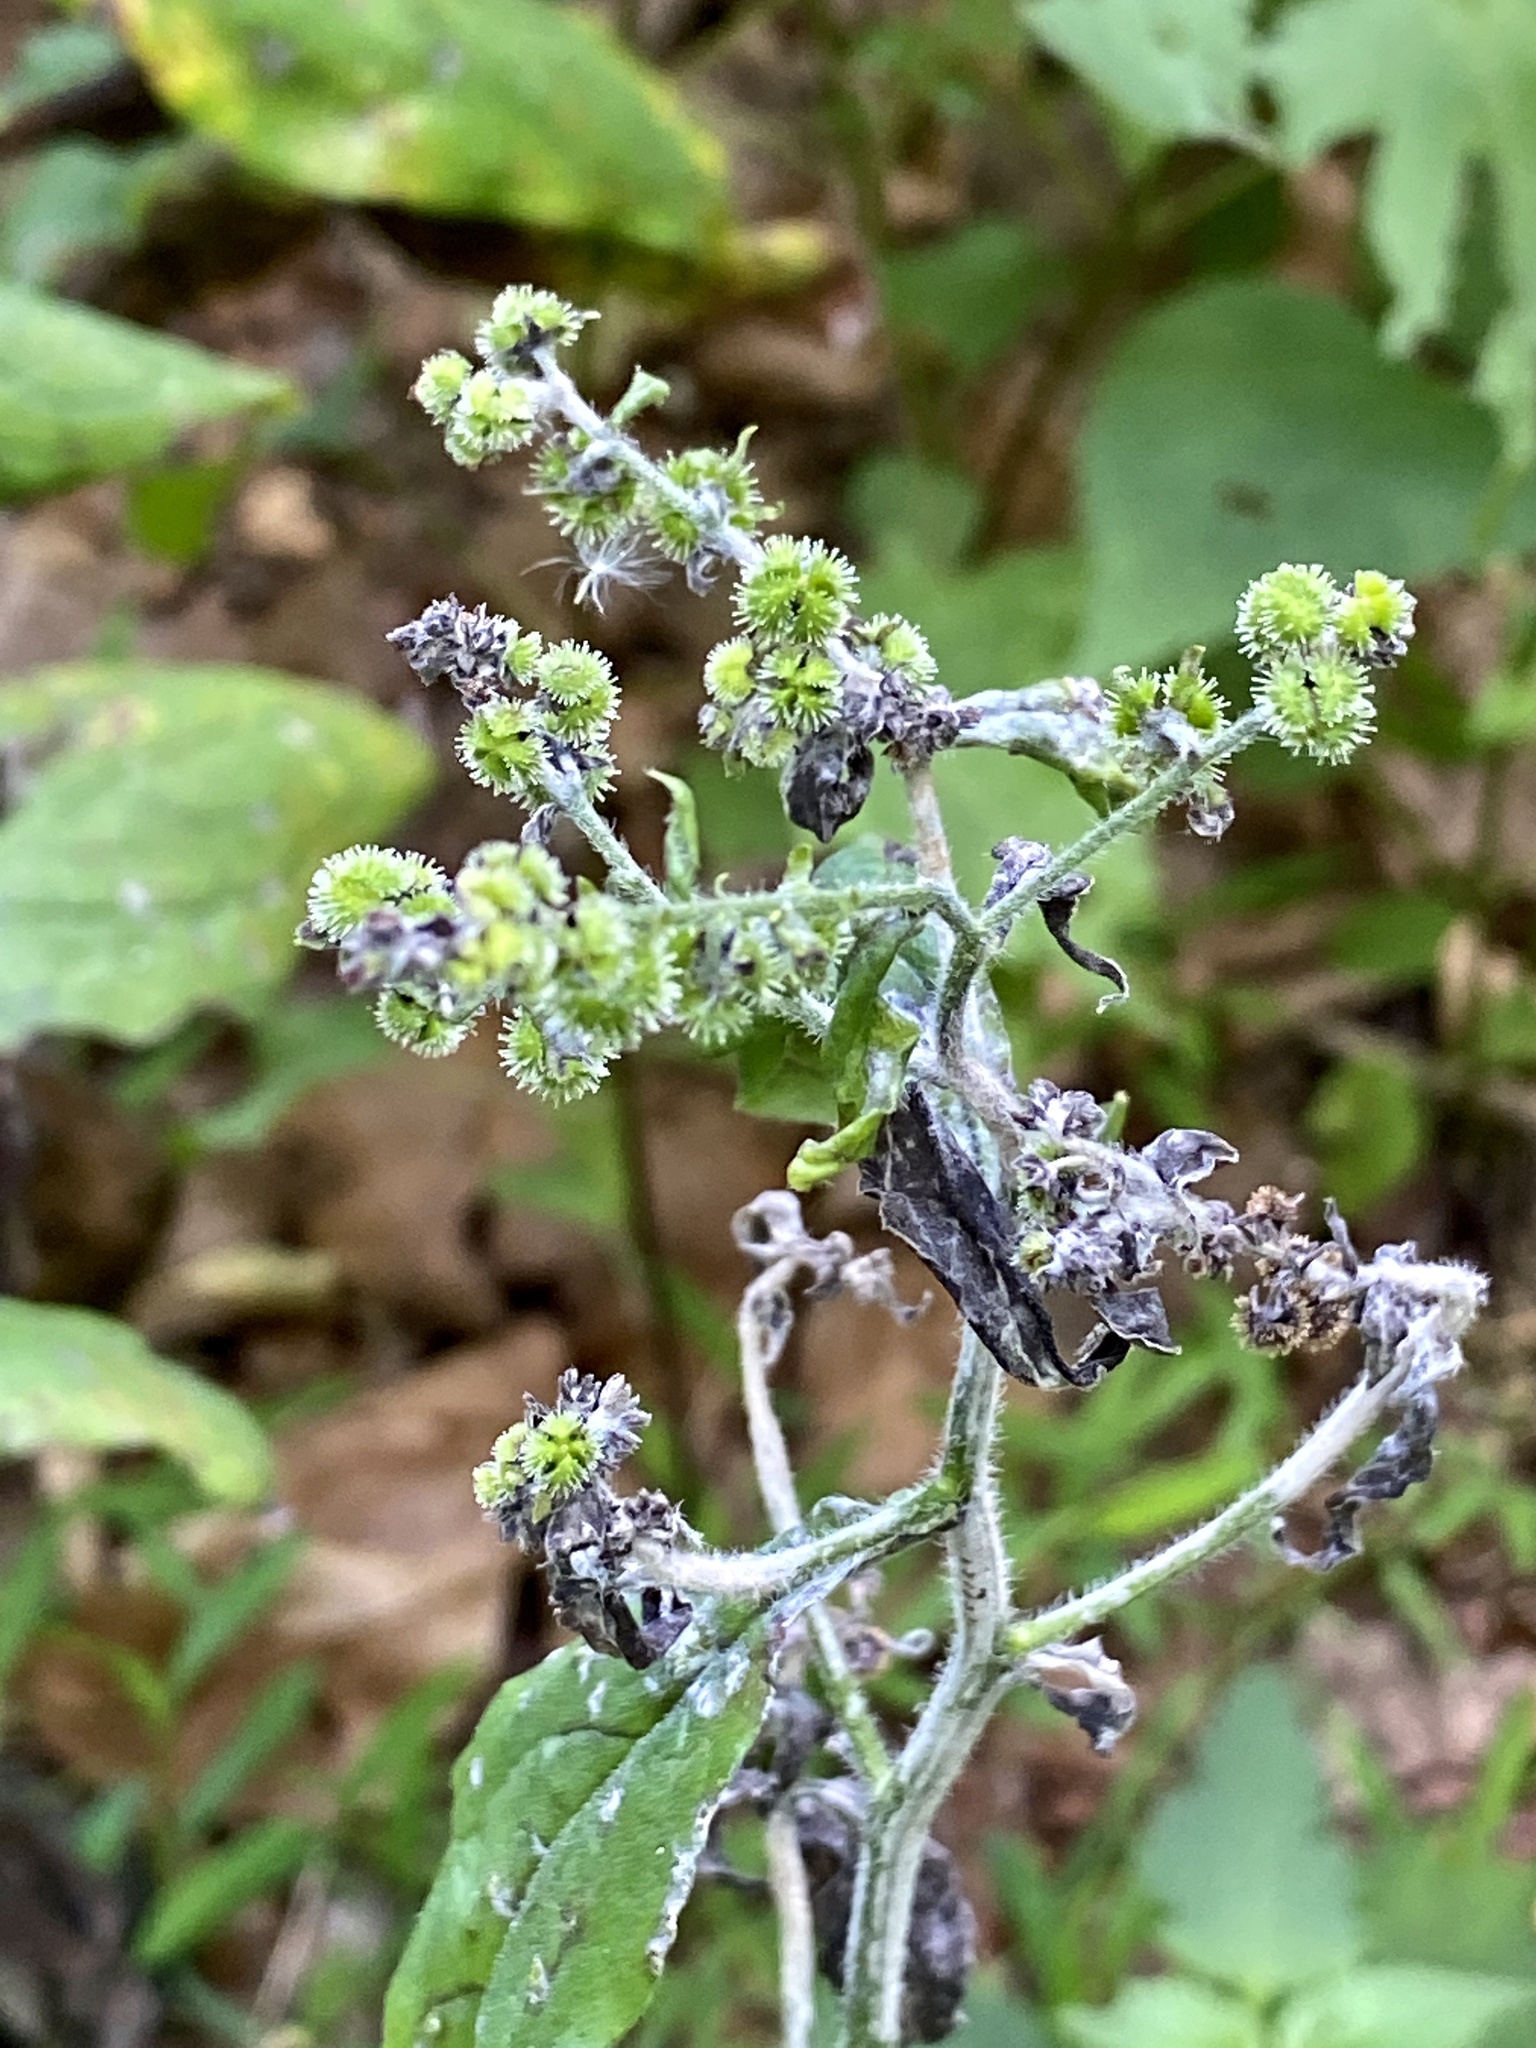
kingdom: Plantae
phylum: Tracheophyta
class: Magnoliopsida
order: Boraginales
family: Boraginaceae
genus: Hackelia
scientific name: Hackelia virginiana
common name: Beggar's-lice
